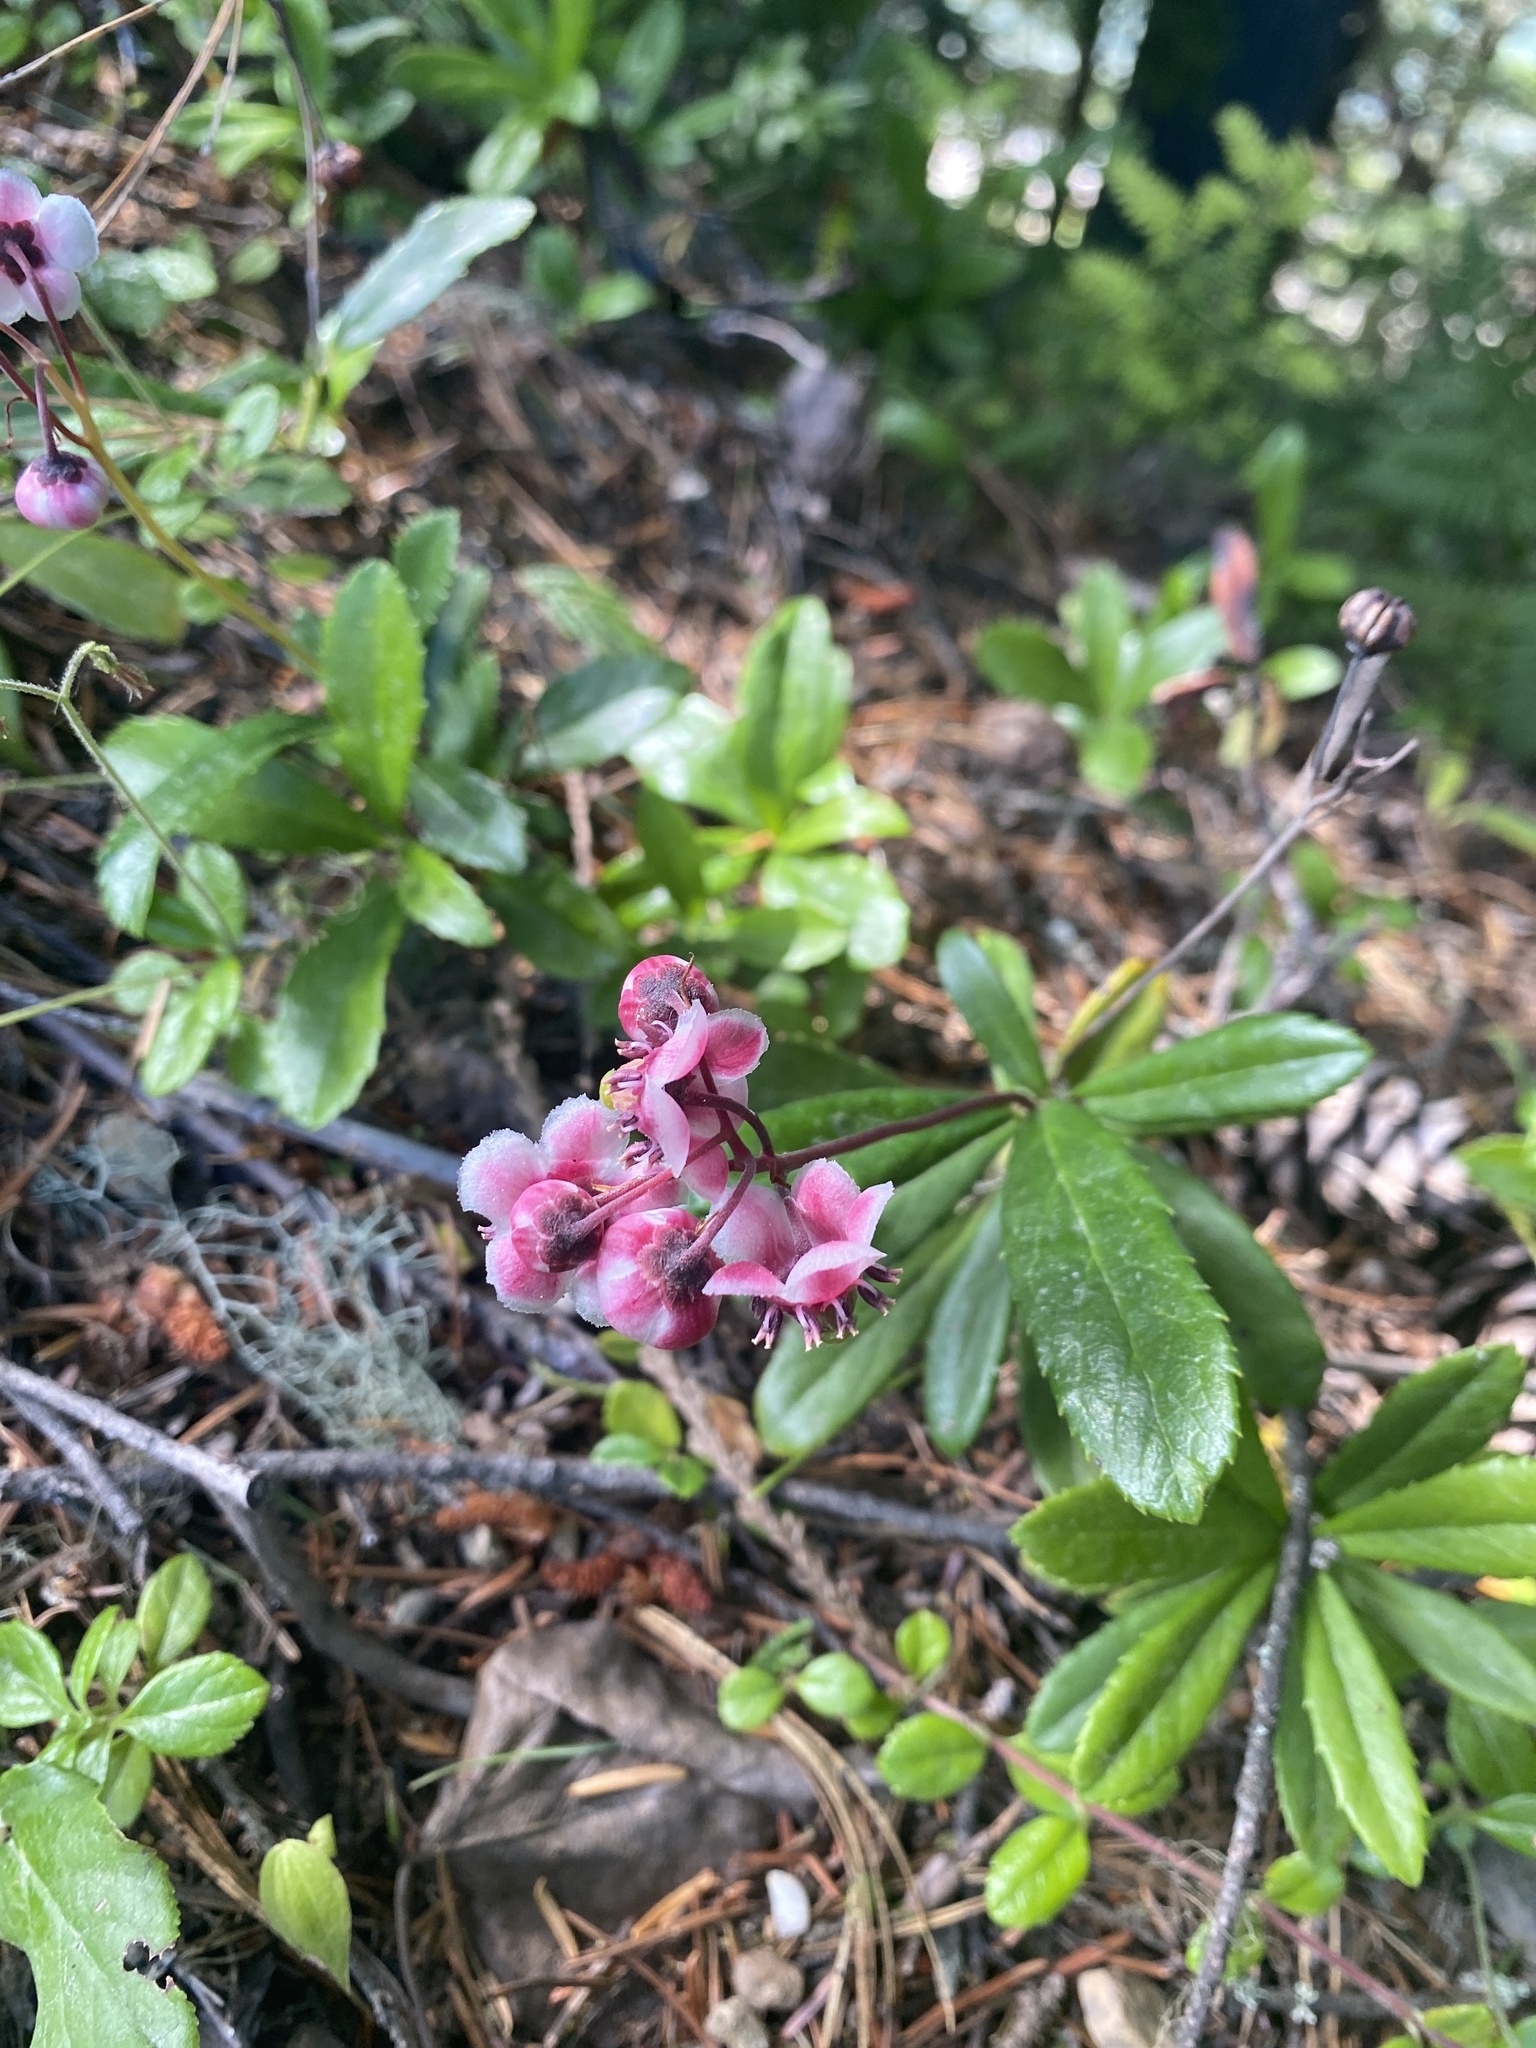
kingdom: Plantae
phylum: Tracheophyta
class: Magnoliopsida
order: Ericales
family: Ericaceae
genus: Chimaphila
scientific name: Chimaphila umbellata
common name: Pipsissewa
